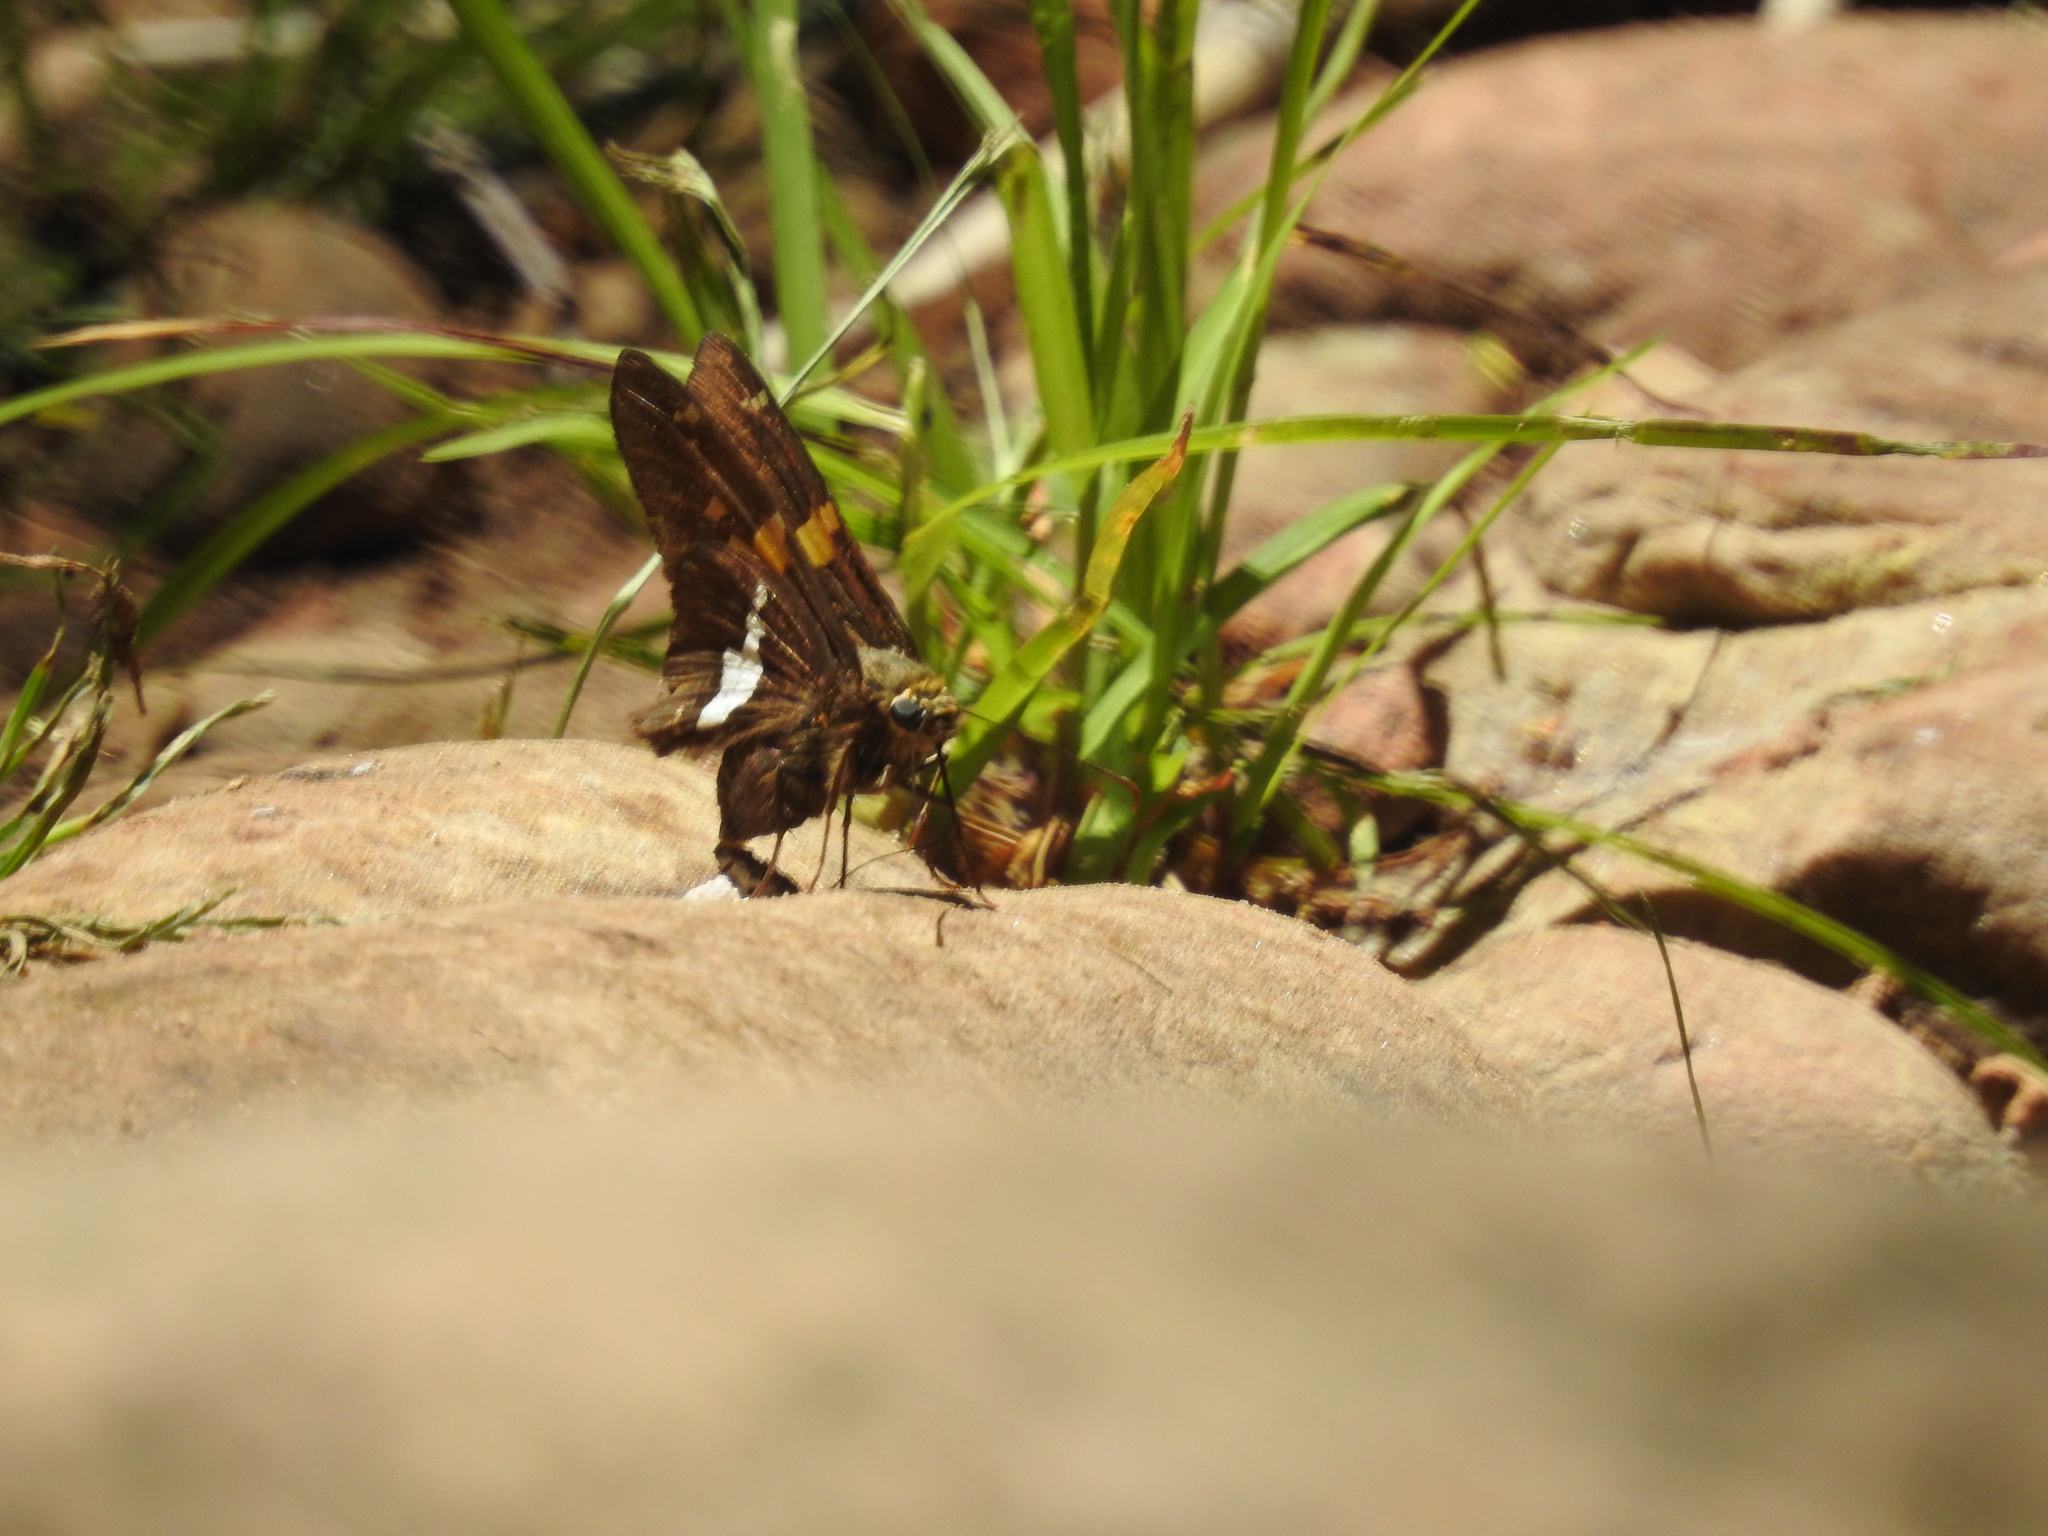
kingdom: Animalia
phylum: Arthropoda
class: Insecta
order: Lepidoptera
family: Hesperiidae
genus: Epargyreus
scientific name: Epargyreus clarus
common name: Silver-spotted skipper
